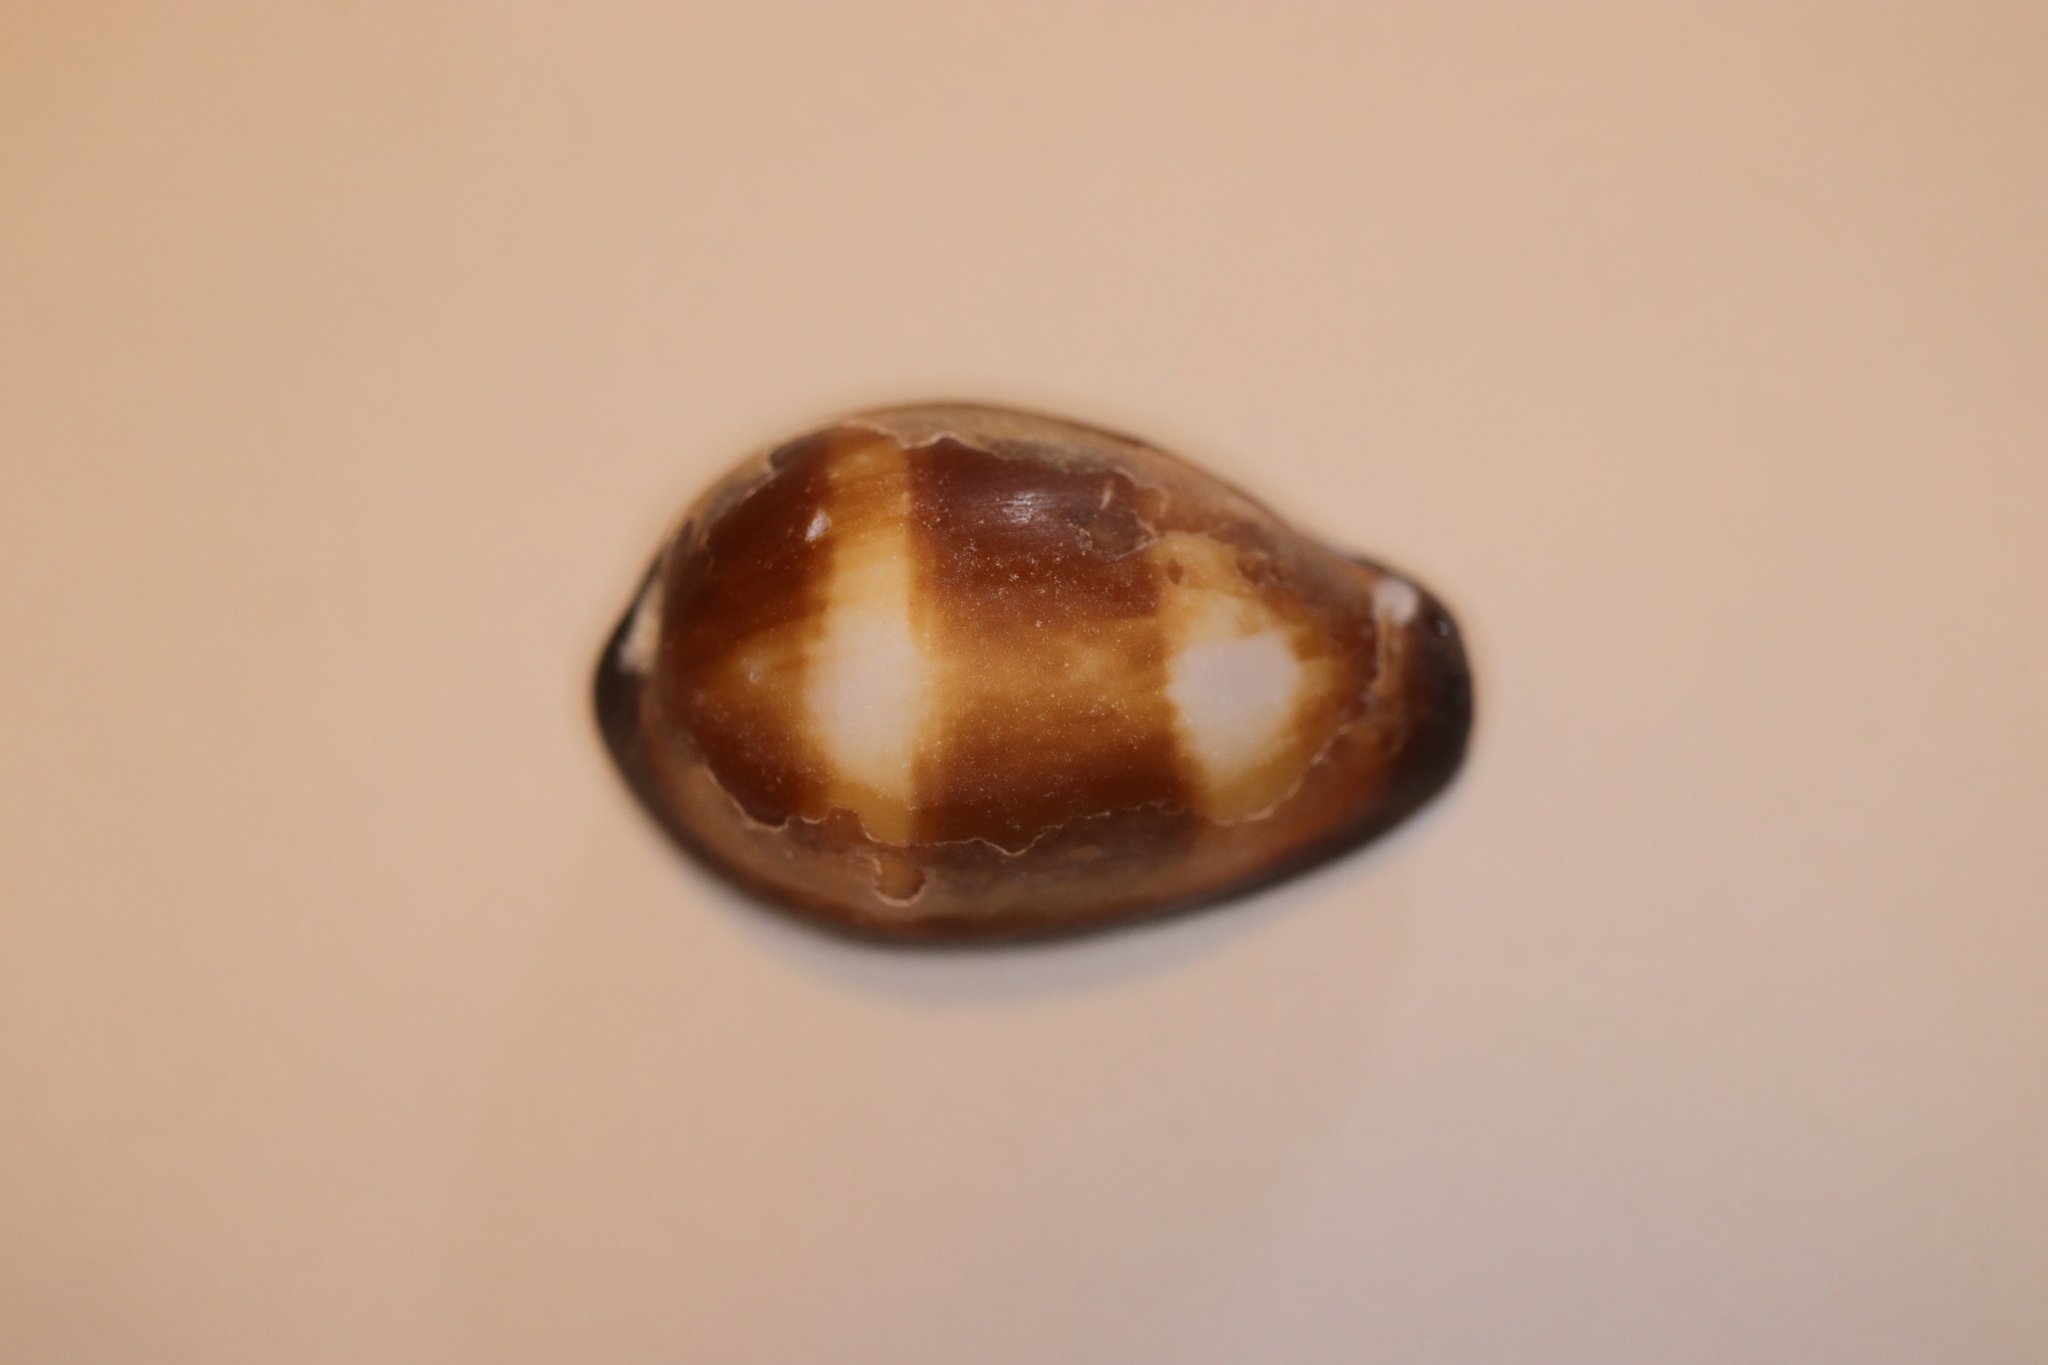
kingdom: Animalia
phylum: Mollusca
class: Gastropoda
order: Littorinimorpha
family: Cypraeidae
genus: Erronea
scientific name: Erronea onyx
